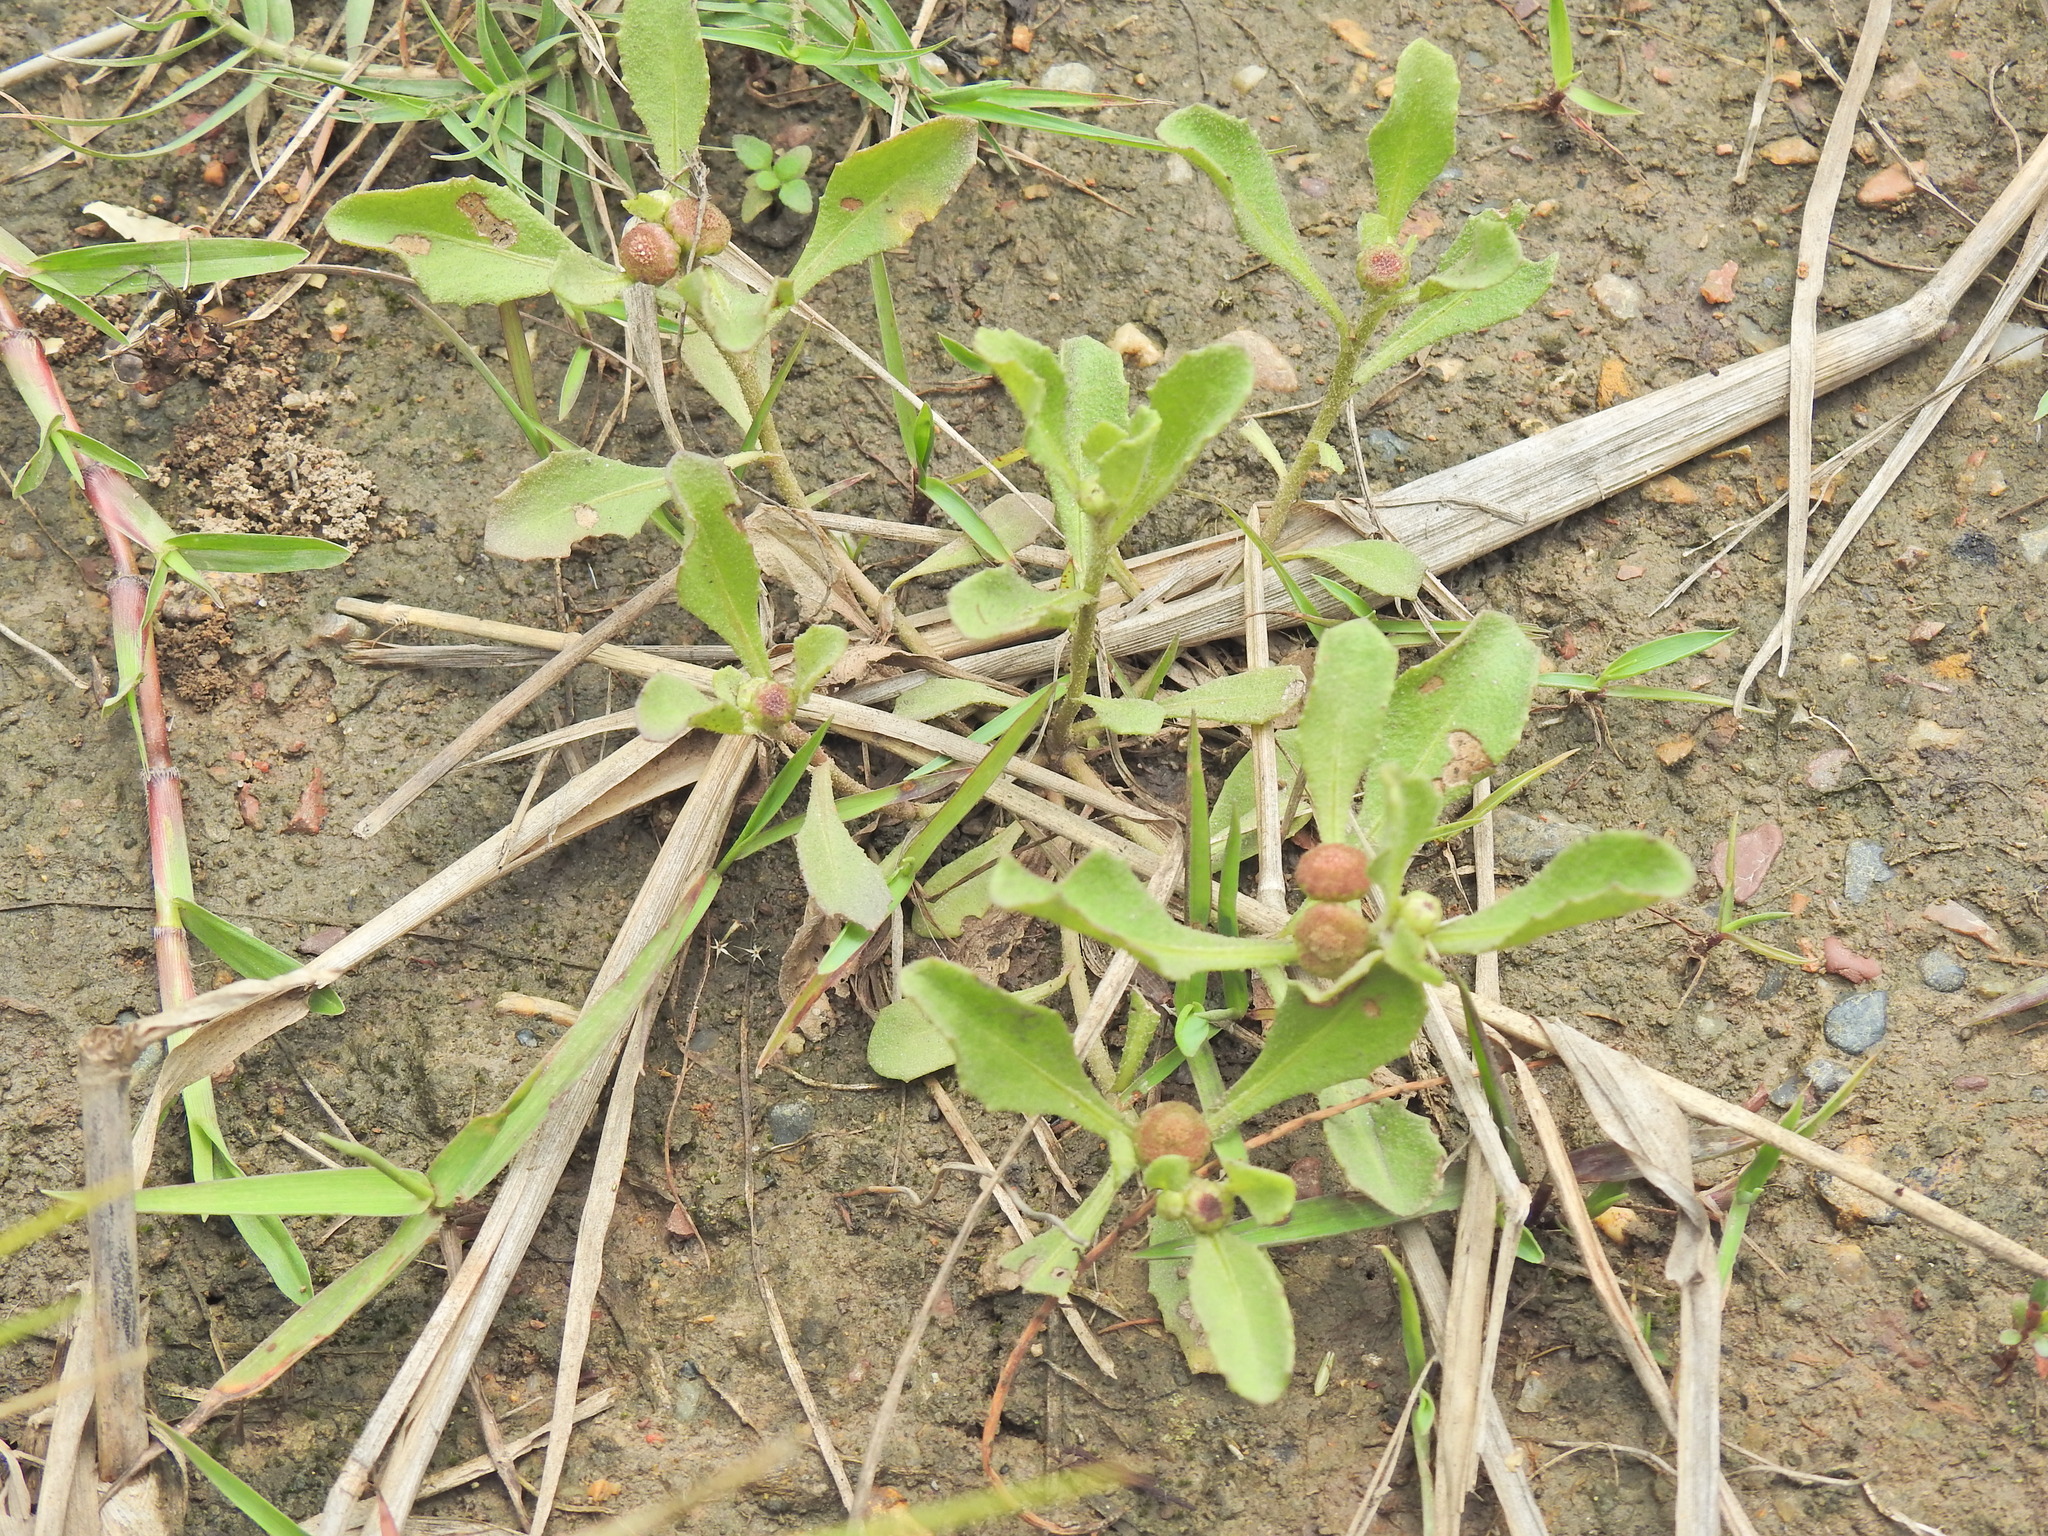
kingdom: Plantae
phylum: Tracheophyta
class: Magnoliopsida
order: Asterales
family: Asteraceae
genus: Sphaeromorphaea
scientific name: Sphaeromorphaea australis
